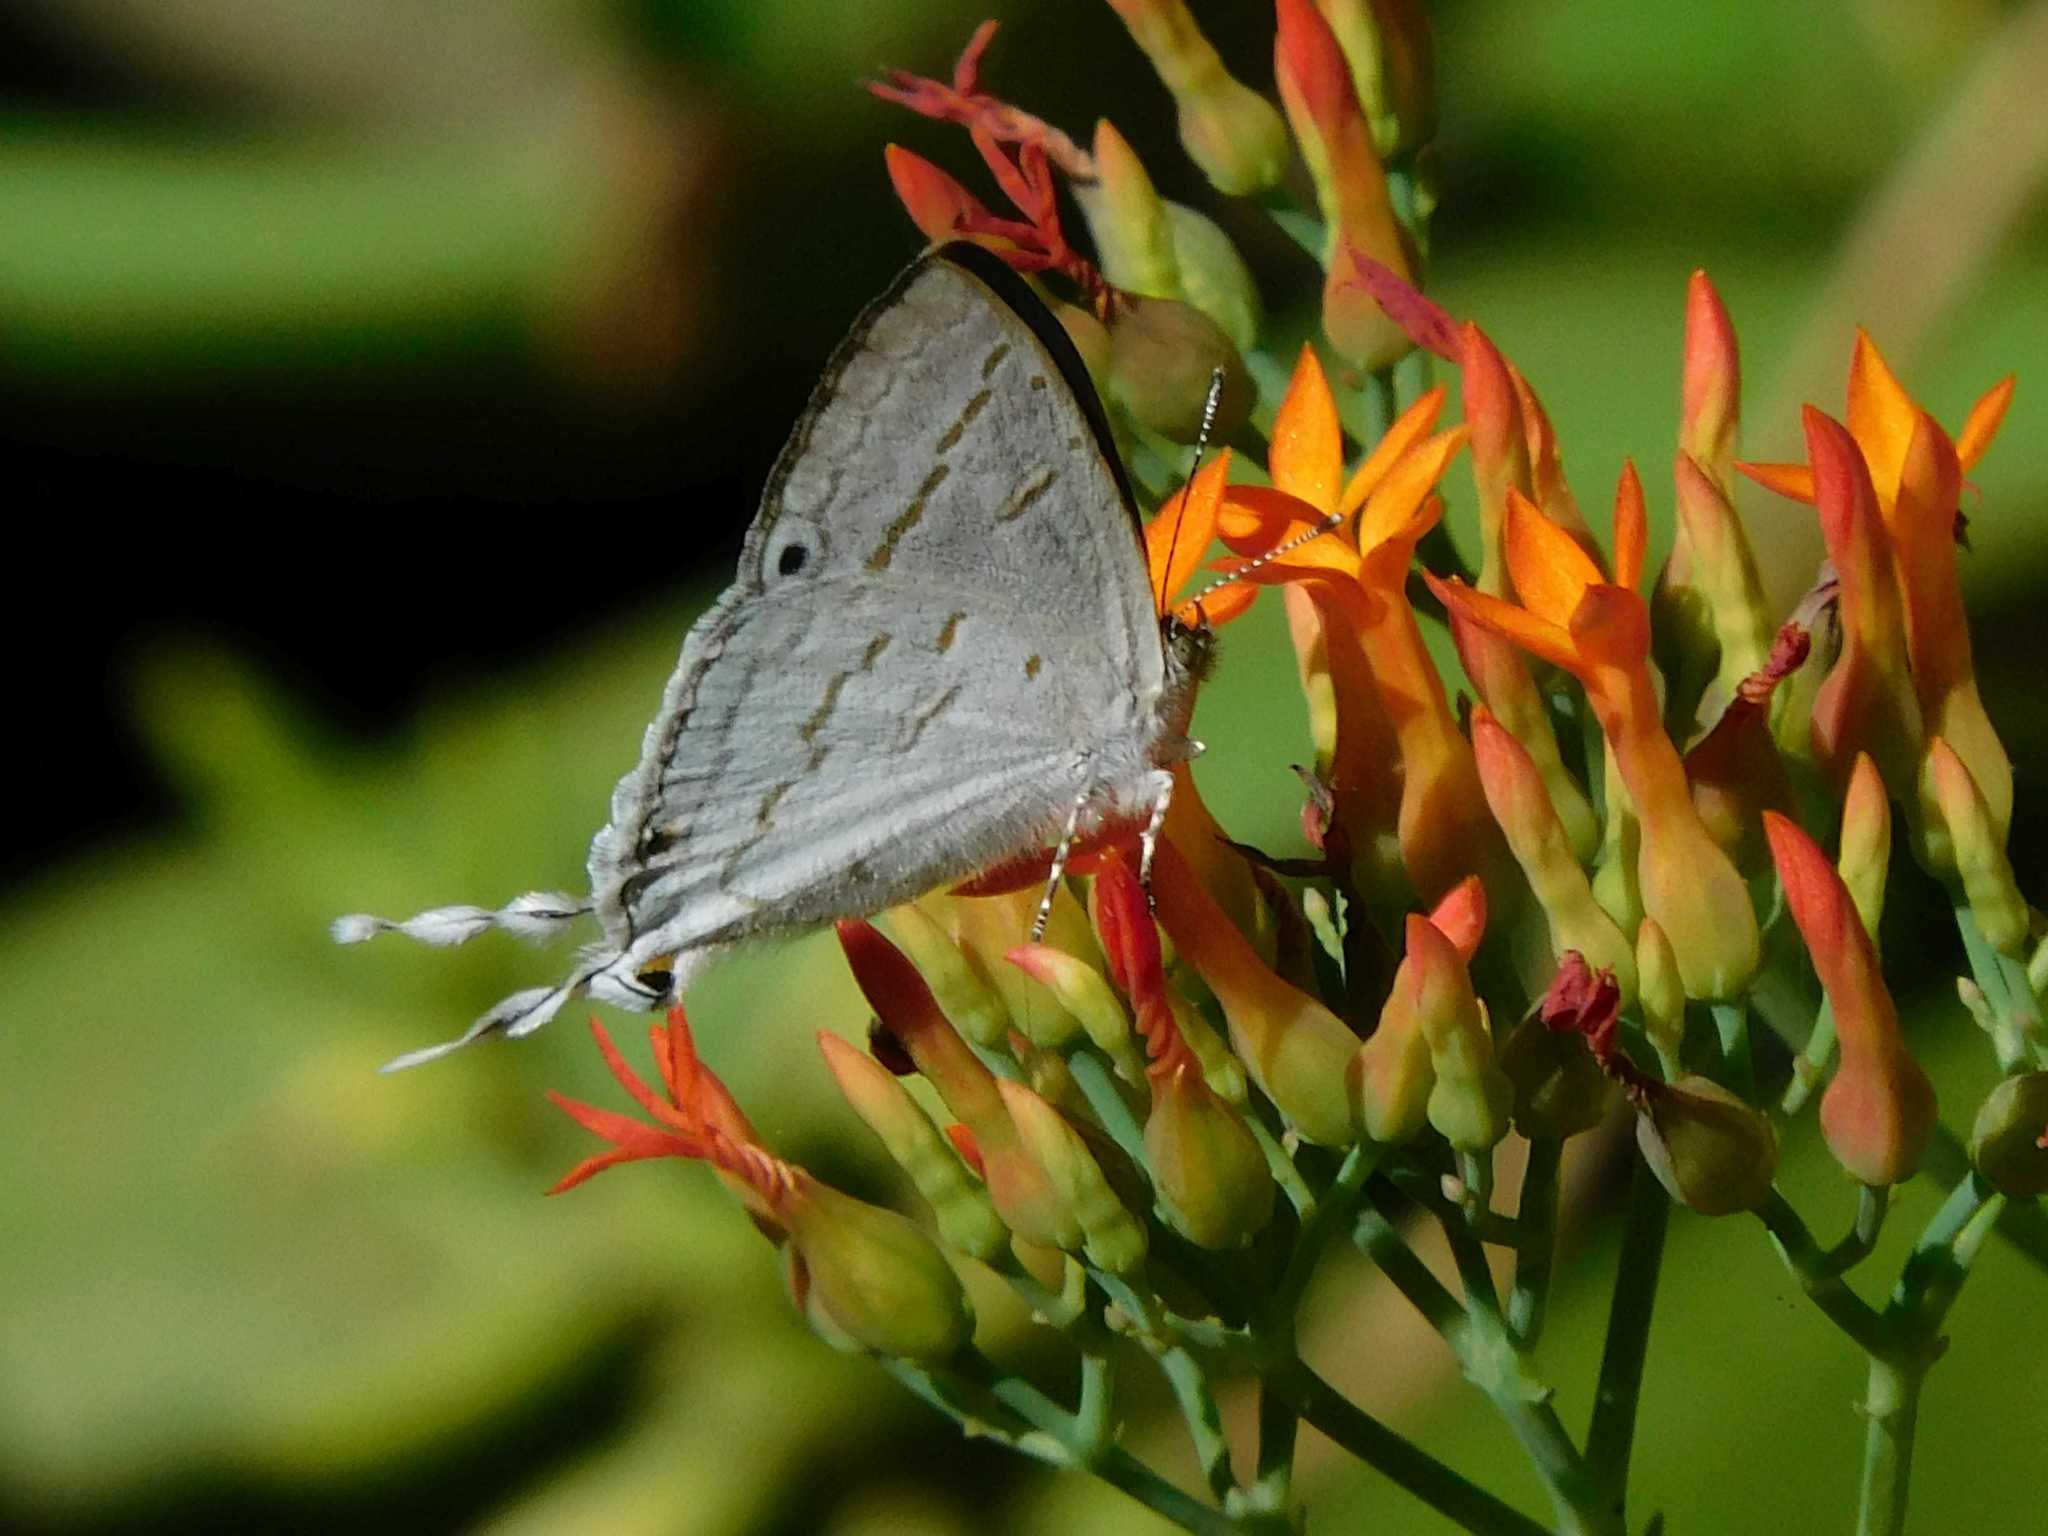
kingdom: Animalia
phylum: Arthropoda
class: Insecta
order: Lepidoptera
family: Lycaenidae
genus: Leptomyrina
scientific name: Leptomyrina hirundo
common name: Tailed black-eye
